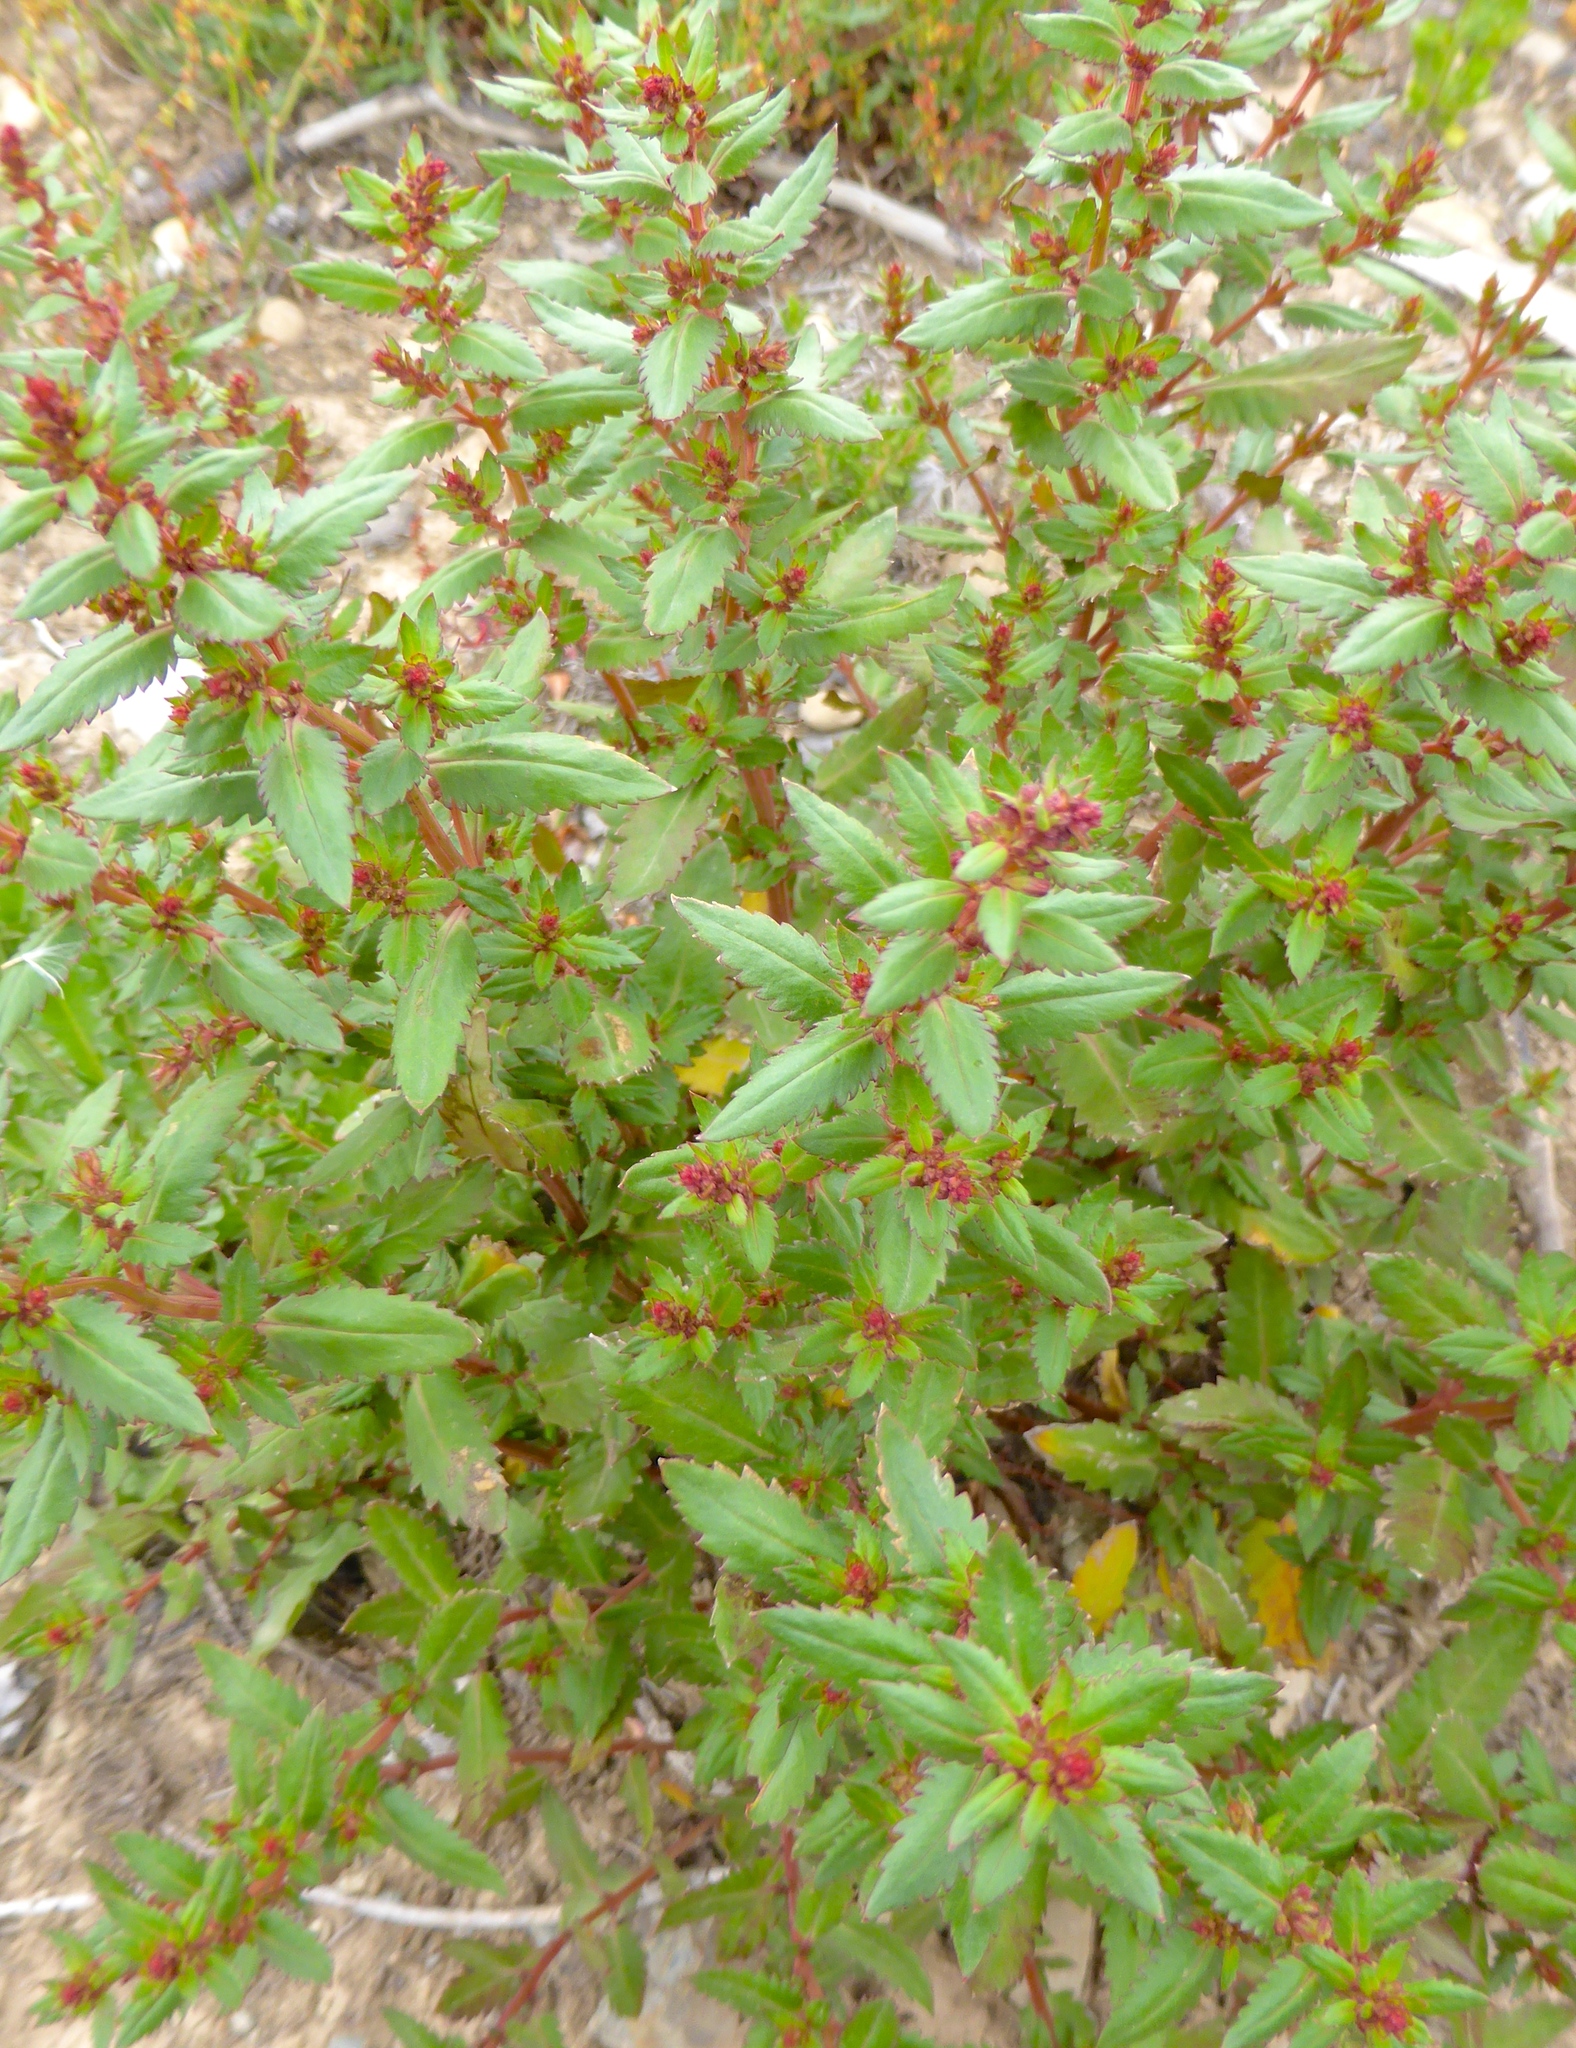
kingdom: Plantae
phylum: Tracheophyta
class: Magnoliopsida
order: Saxifragales
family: Haloragaceae
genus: Haloragis
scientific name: Haloragis erecta
